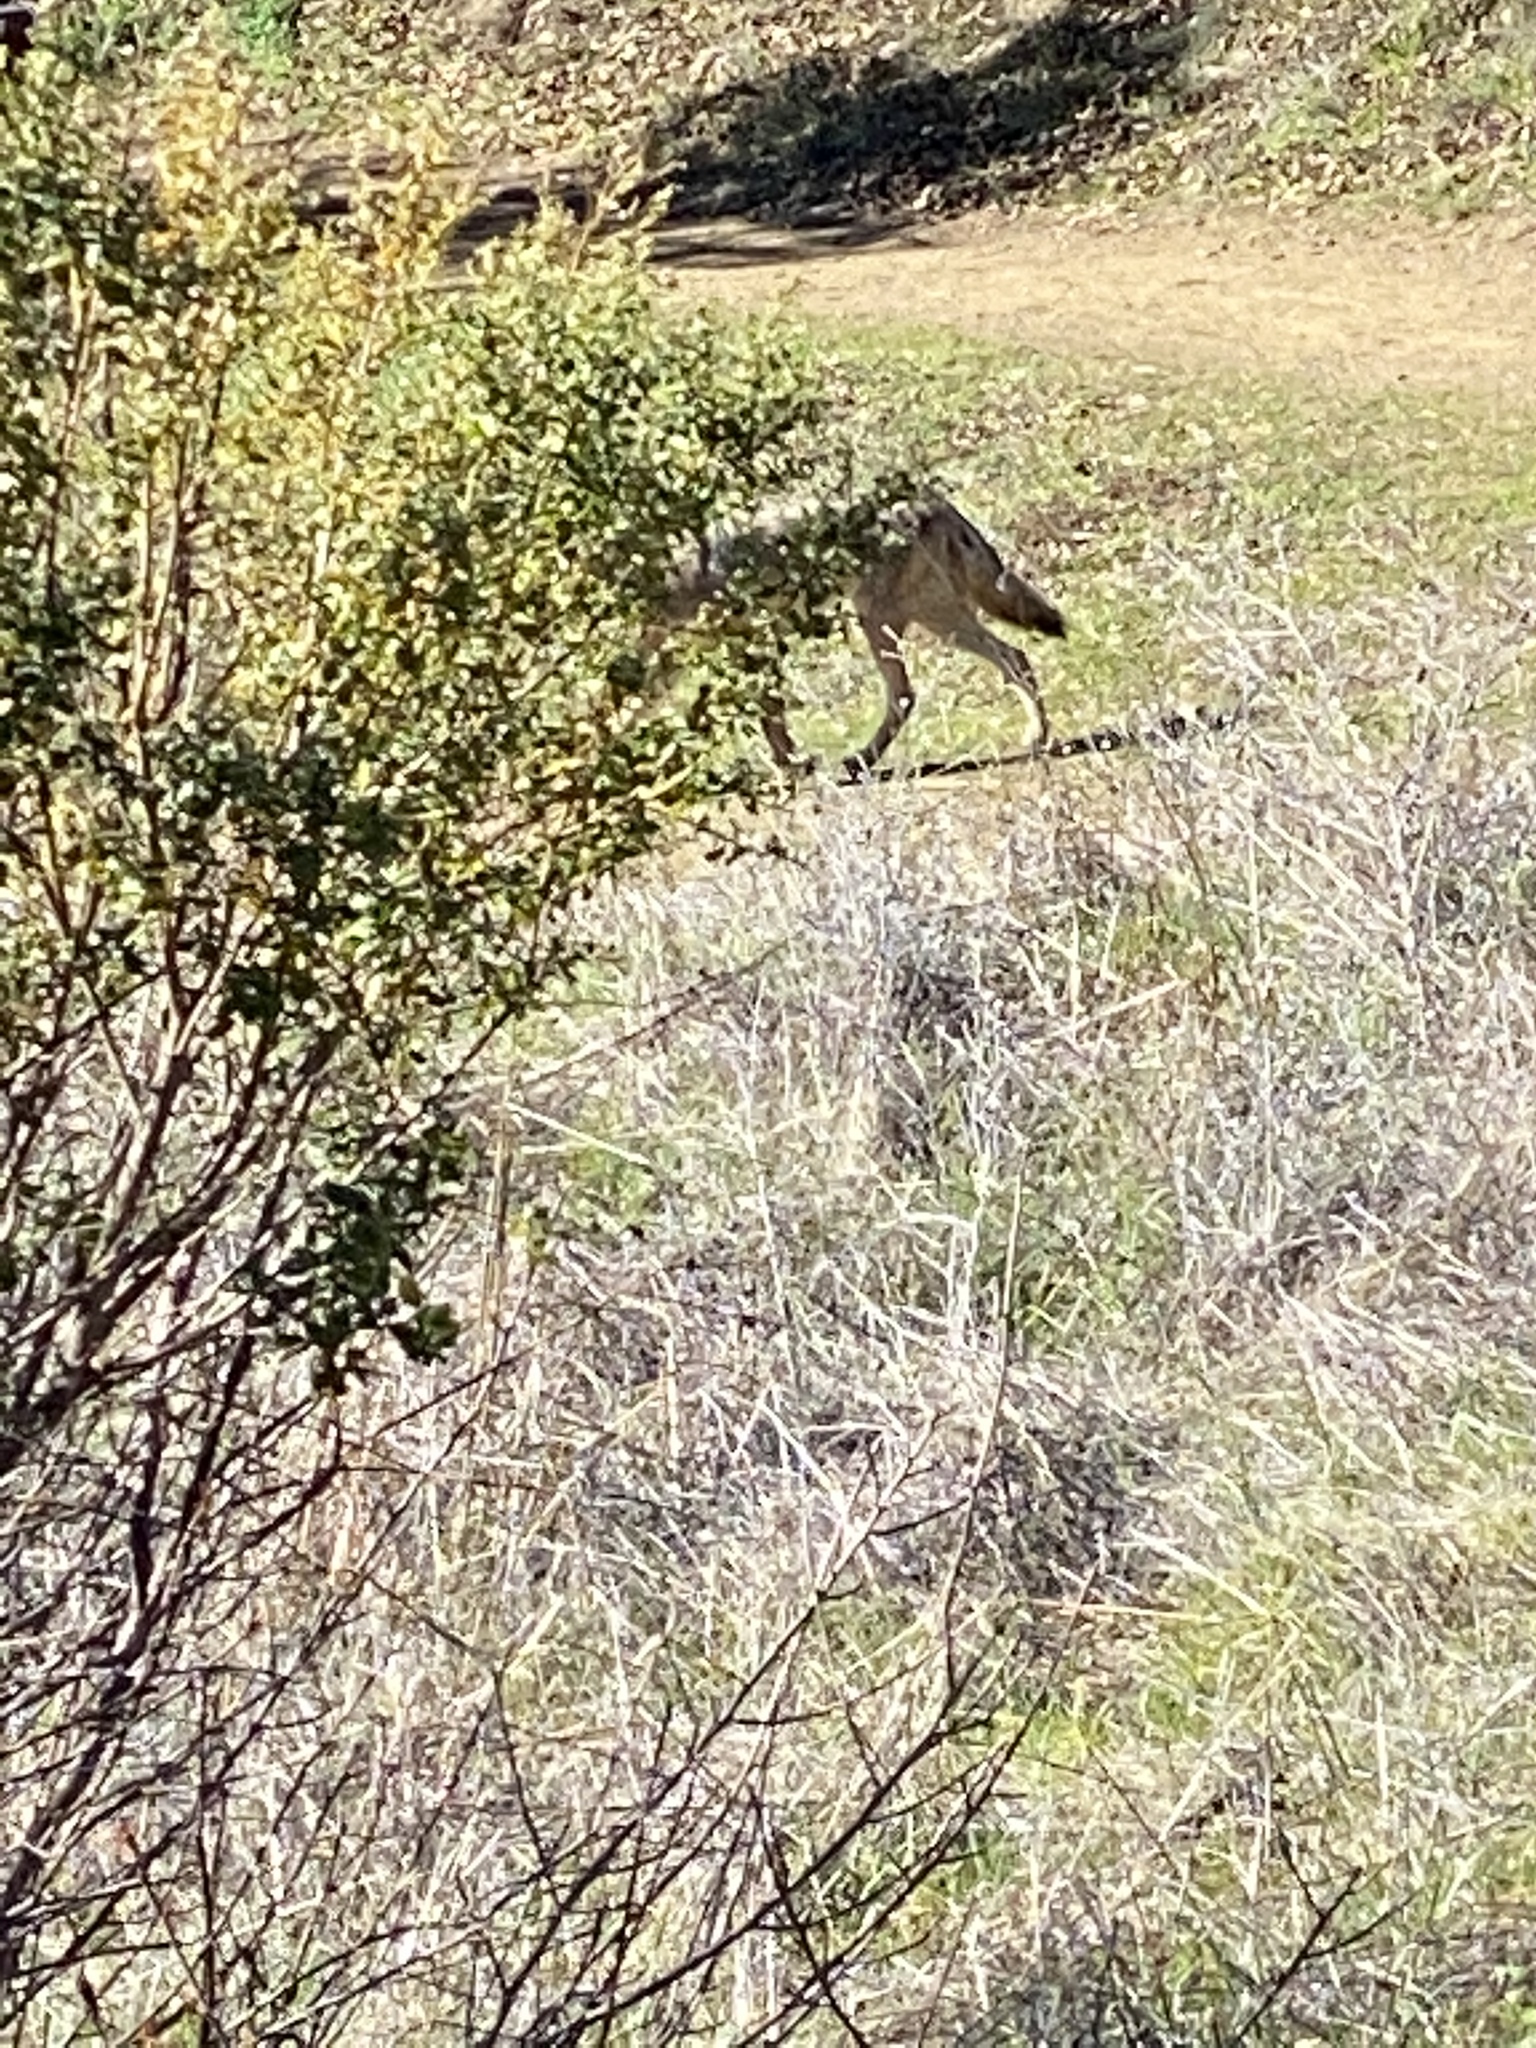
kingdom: Animalia
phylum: Chordata
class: Mammalia
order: Carnivora
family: Canidae
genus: Canis
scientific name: Canis latrans
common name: Coyote
